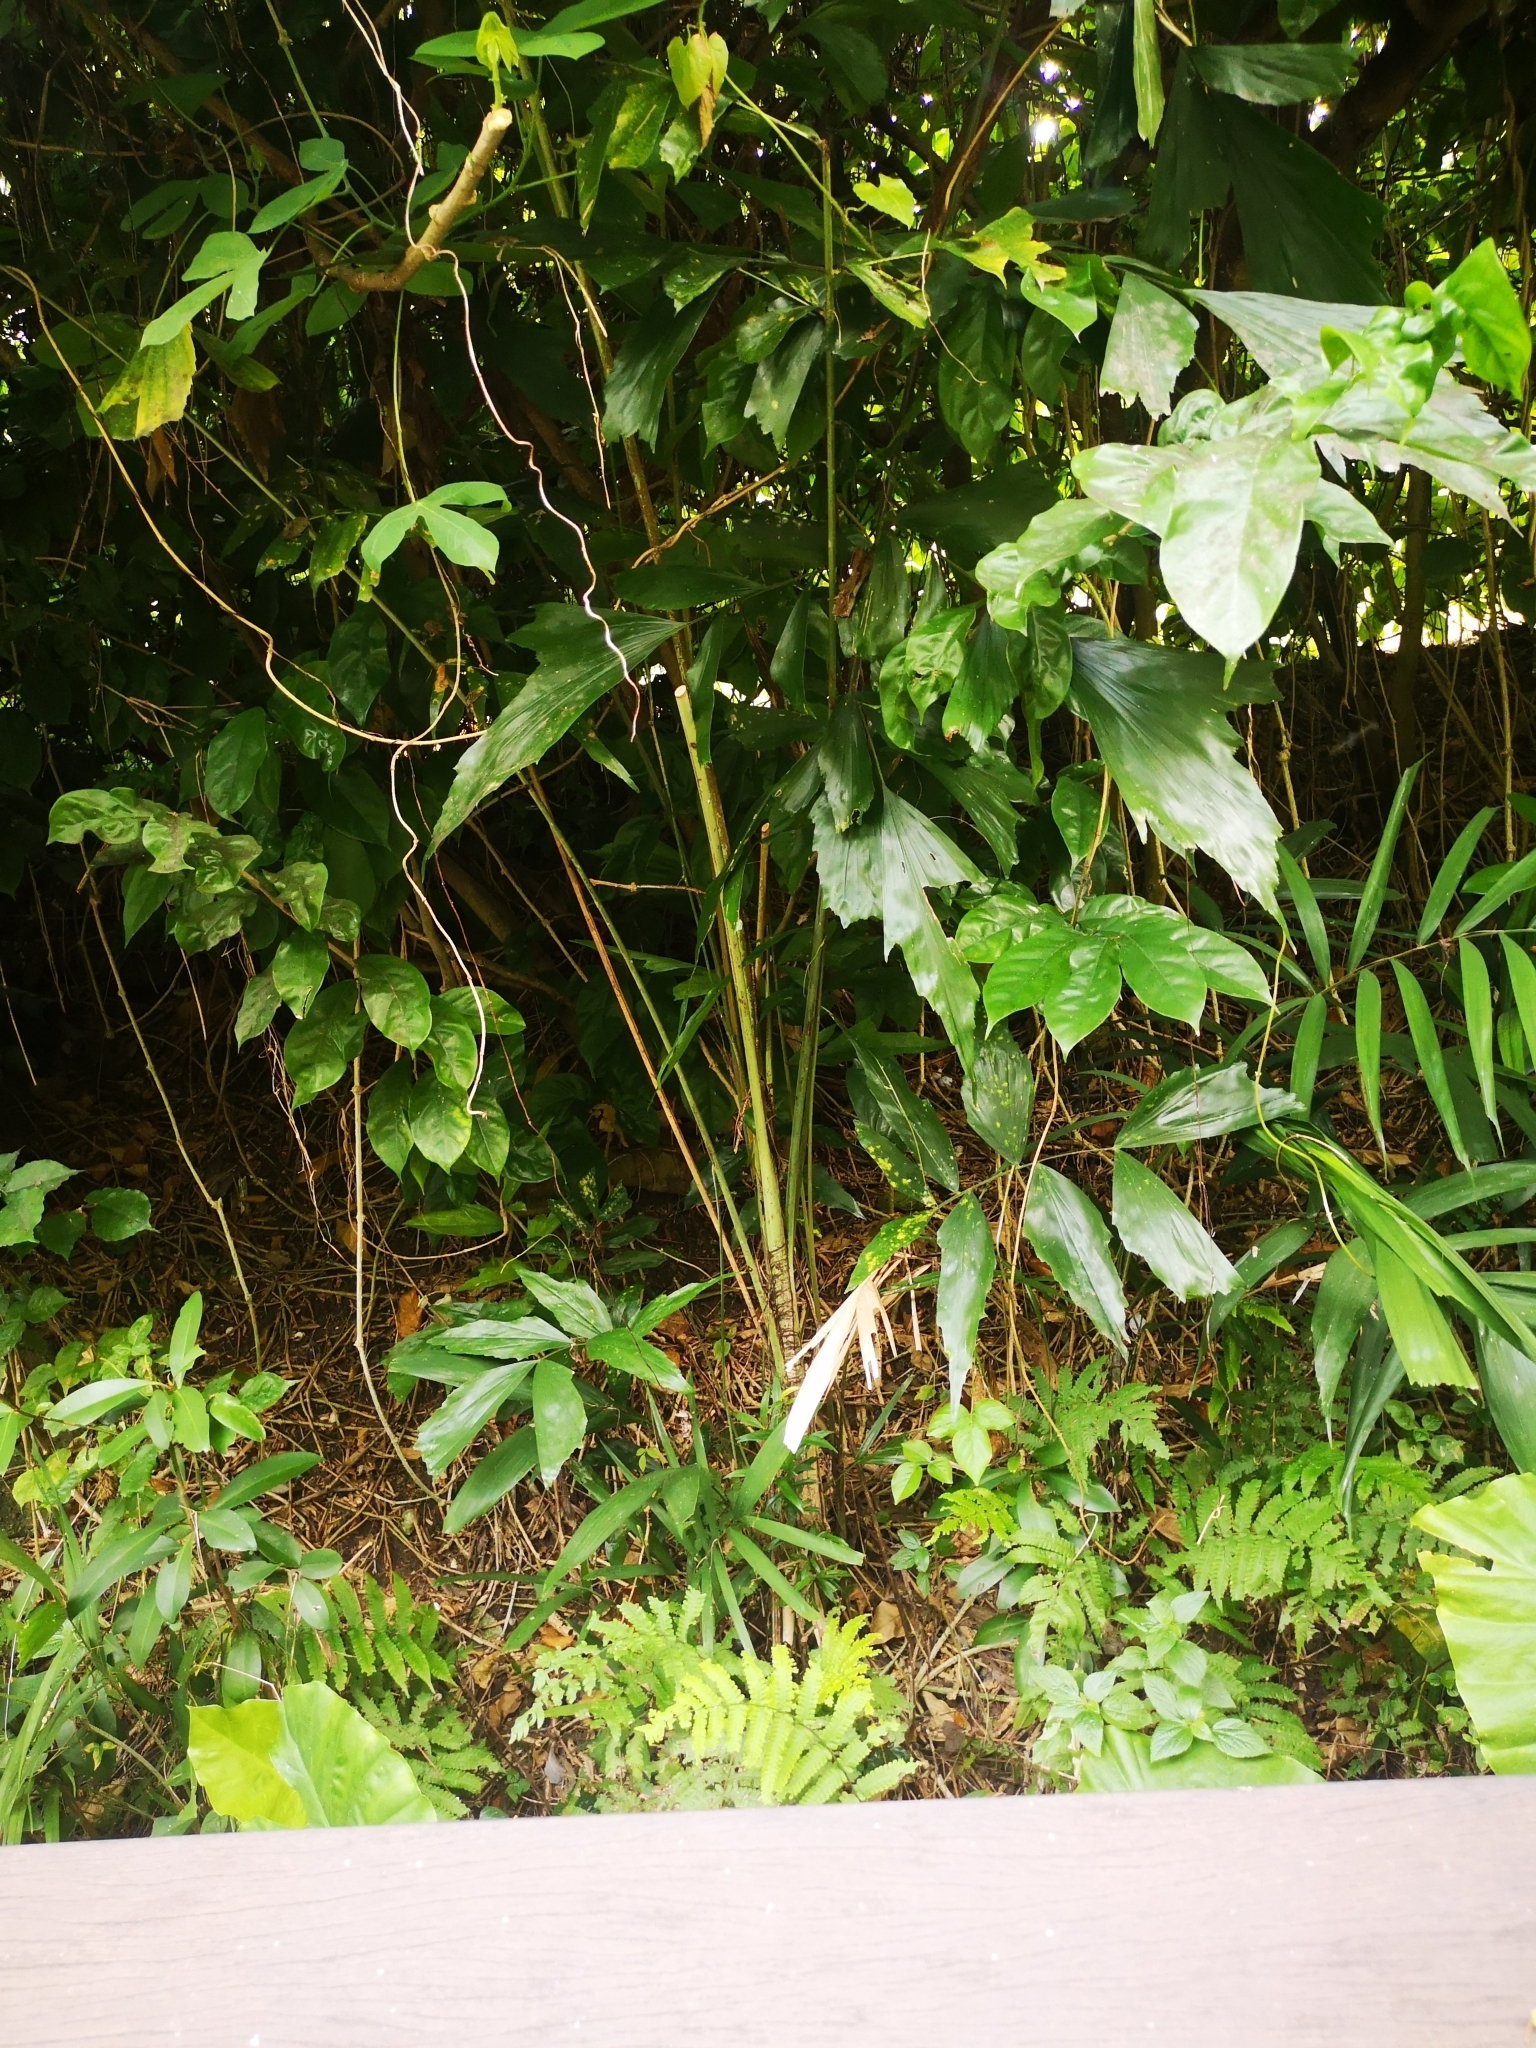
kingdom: Plantae
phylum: Tracheophyta
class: Liliopsida
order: Arecales
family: Arecaceae
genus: Caryota
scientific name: Caryota mitis
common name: Burmese fishtail palm
